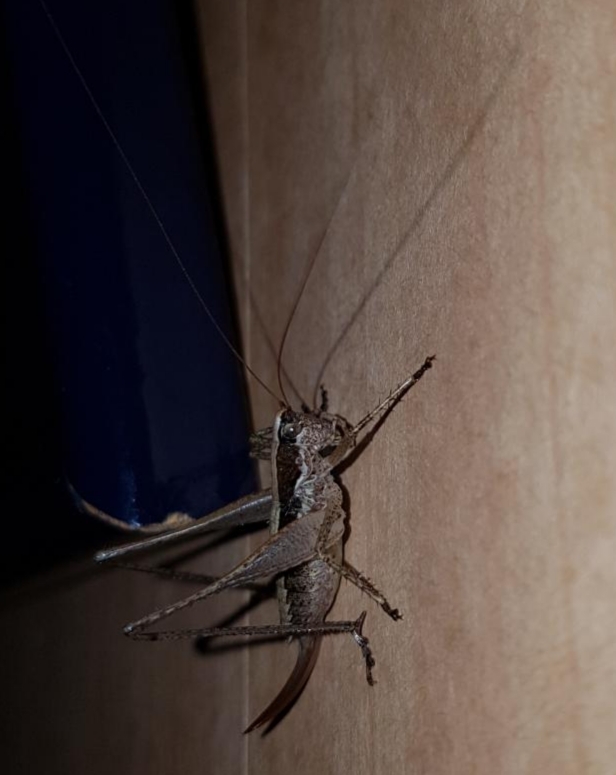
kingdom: Animalia
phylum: Arthropoda
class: Insecta
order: Orthoptera
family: Tettigoniidae
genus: Yersinella
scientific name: Yersinella raymondii
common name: Raymond's bush-cricket
